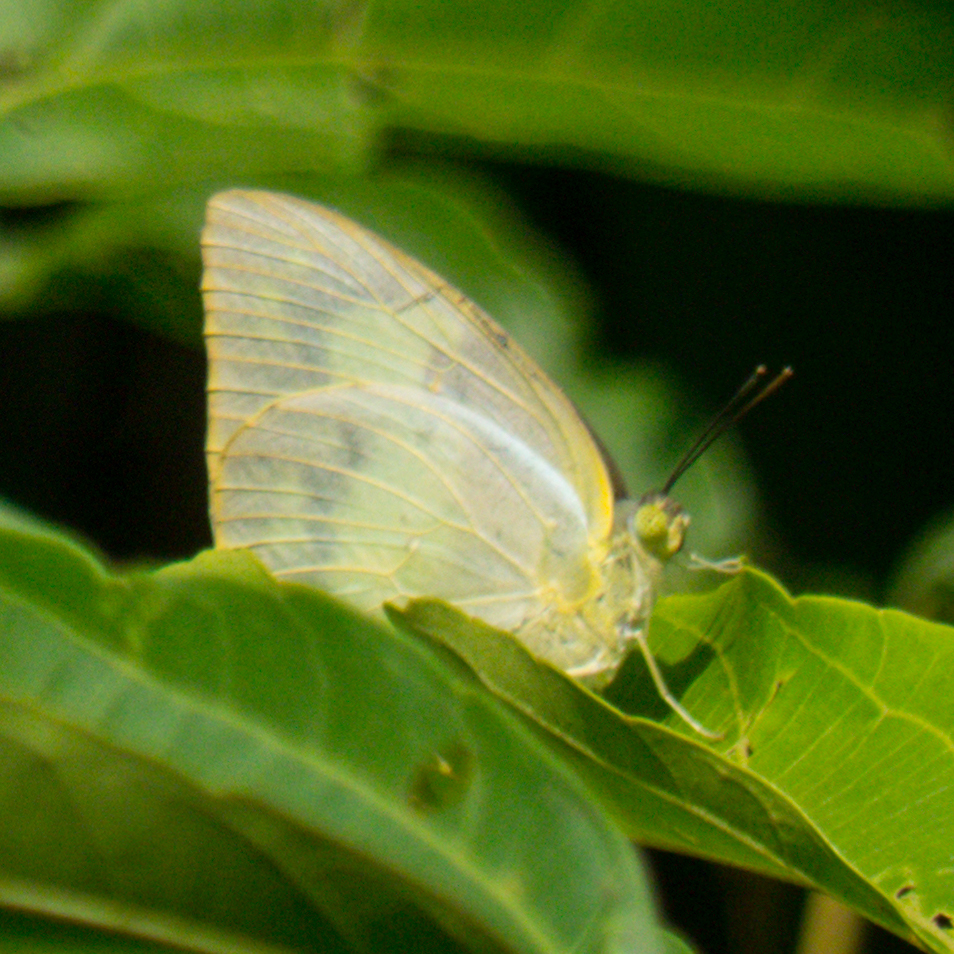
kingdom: Animalia
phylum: Arthropoda
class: Insecta
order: Lepidoptera
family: Pieridae
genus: Catopsilia
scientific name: Catopsilia pomona
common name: Common emigrant
